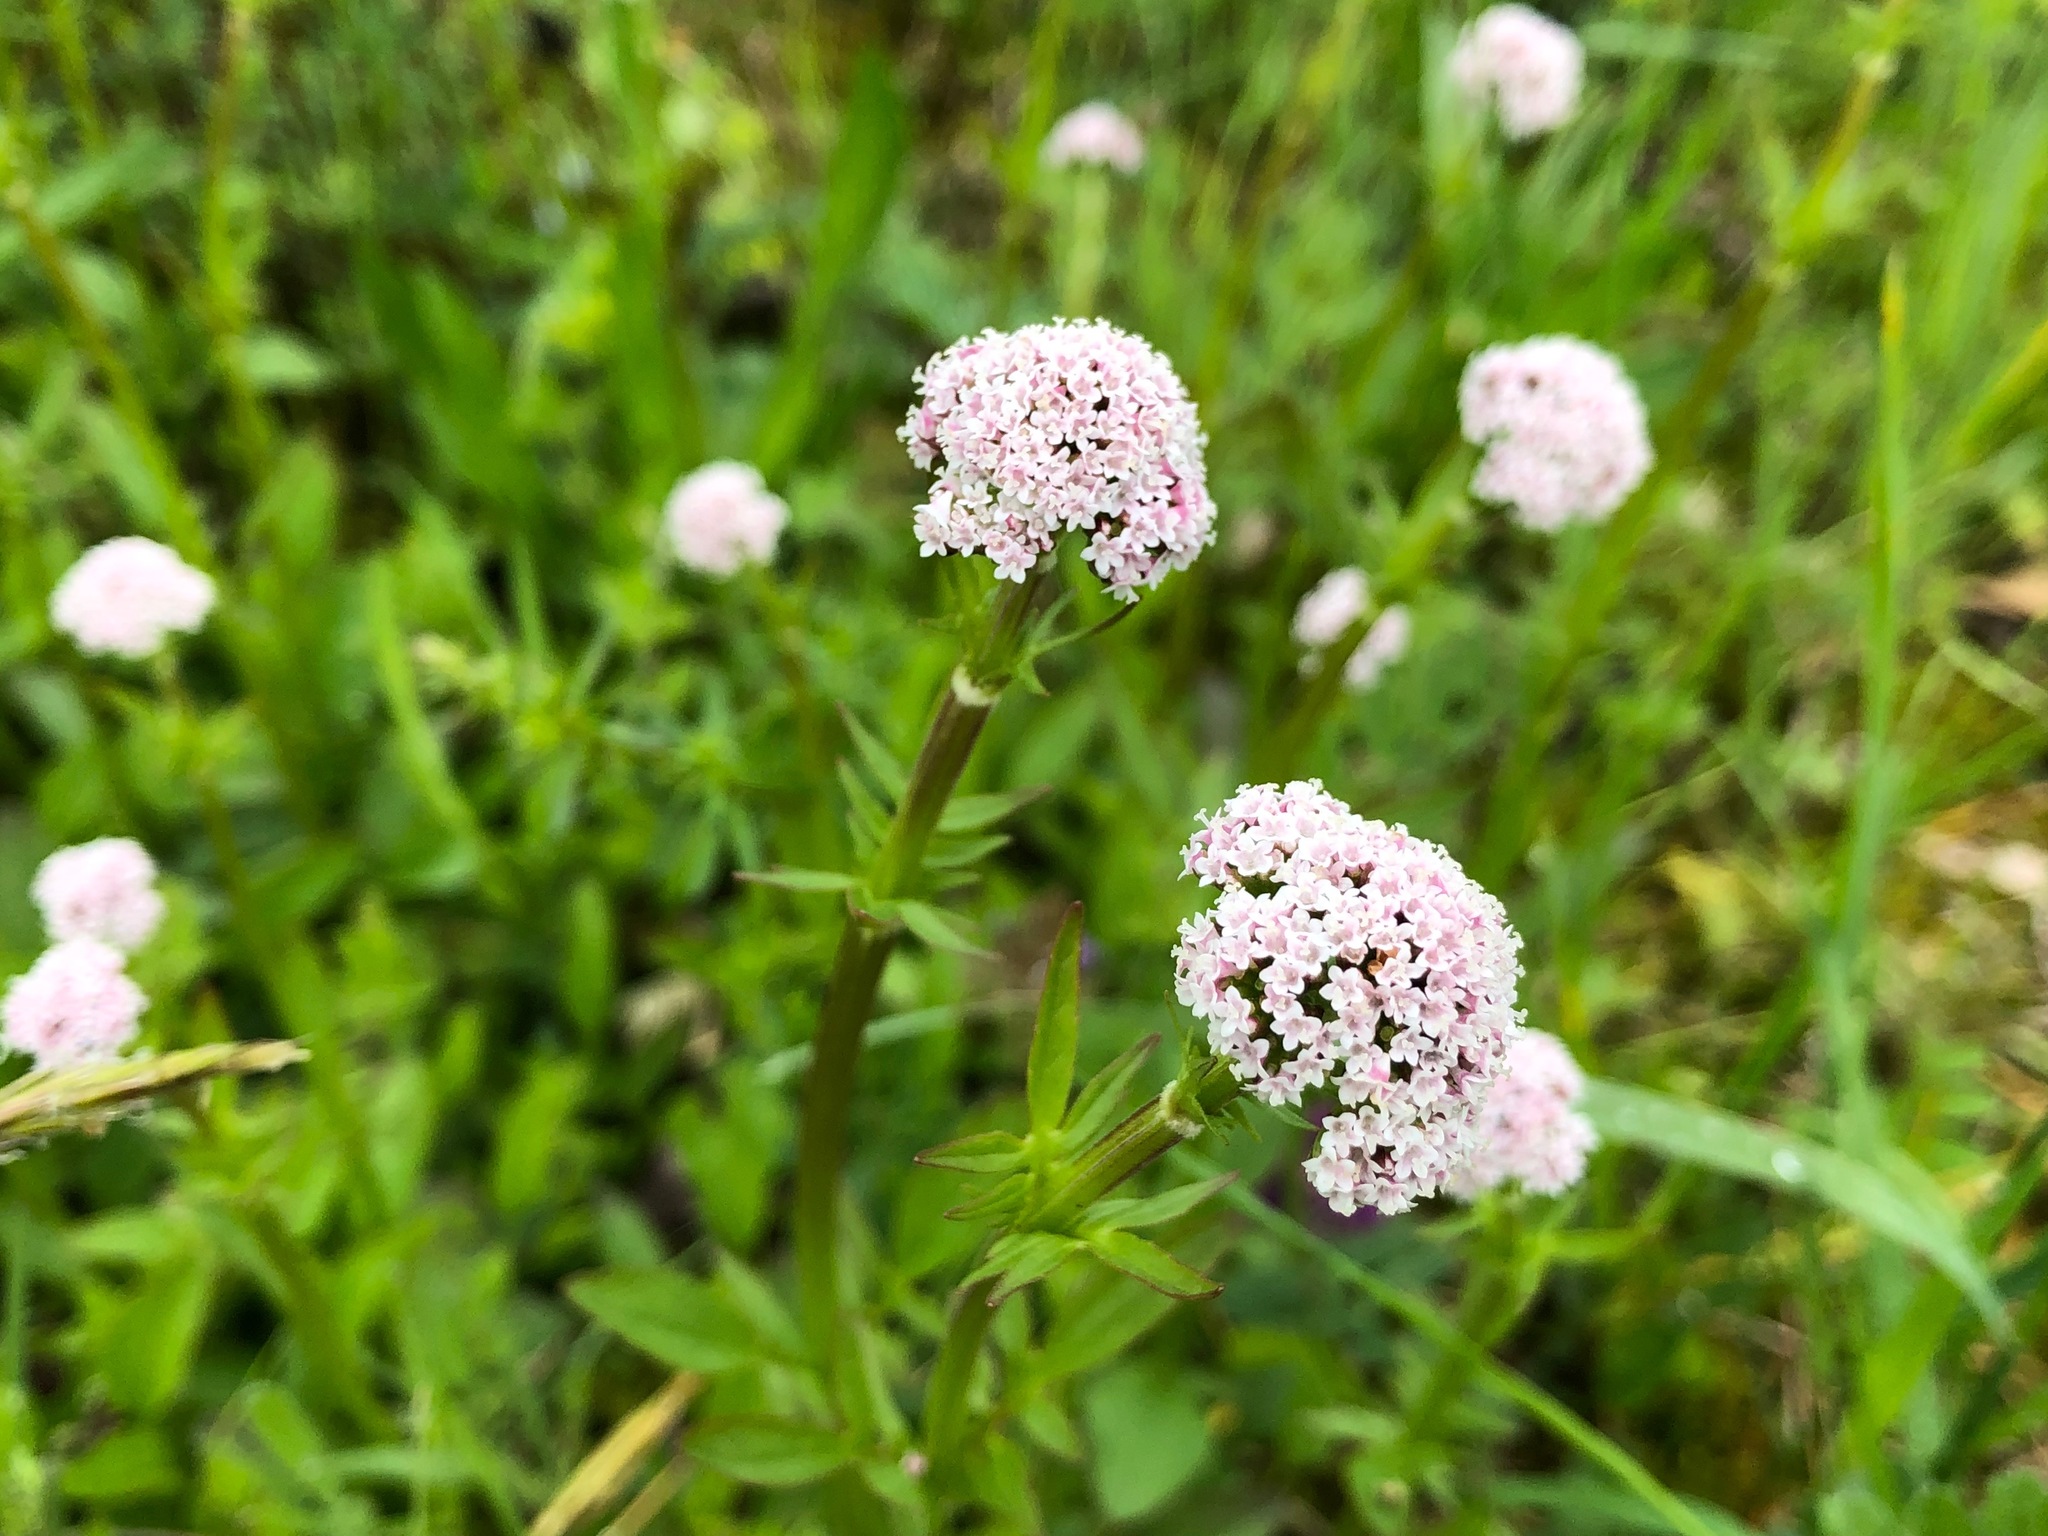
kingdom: Plantae
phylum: Tracheophyta
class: Magnoliopsida
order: Dipsacales
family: Caprifoliaceae
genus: Valeriana
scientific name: Valeriana dioica
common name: Marsh valerian
